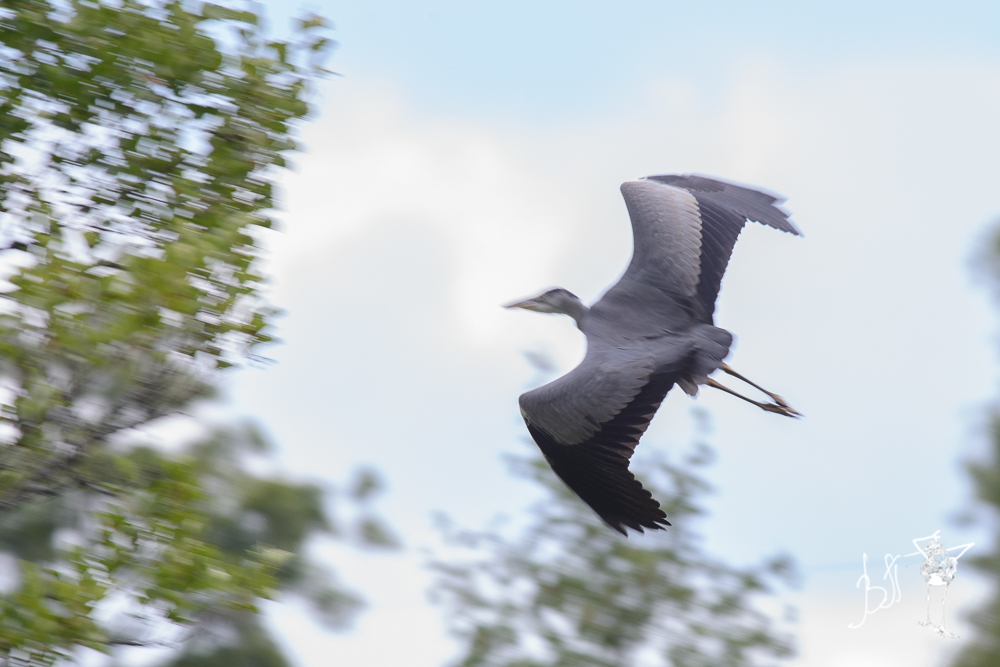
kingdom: Animalia
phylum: Chordata
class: Aves
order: Pelecaniformes
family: Ardeidae
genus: Ardea
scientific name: Ardea cinerea
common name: Grey heron
